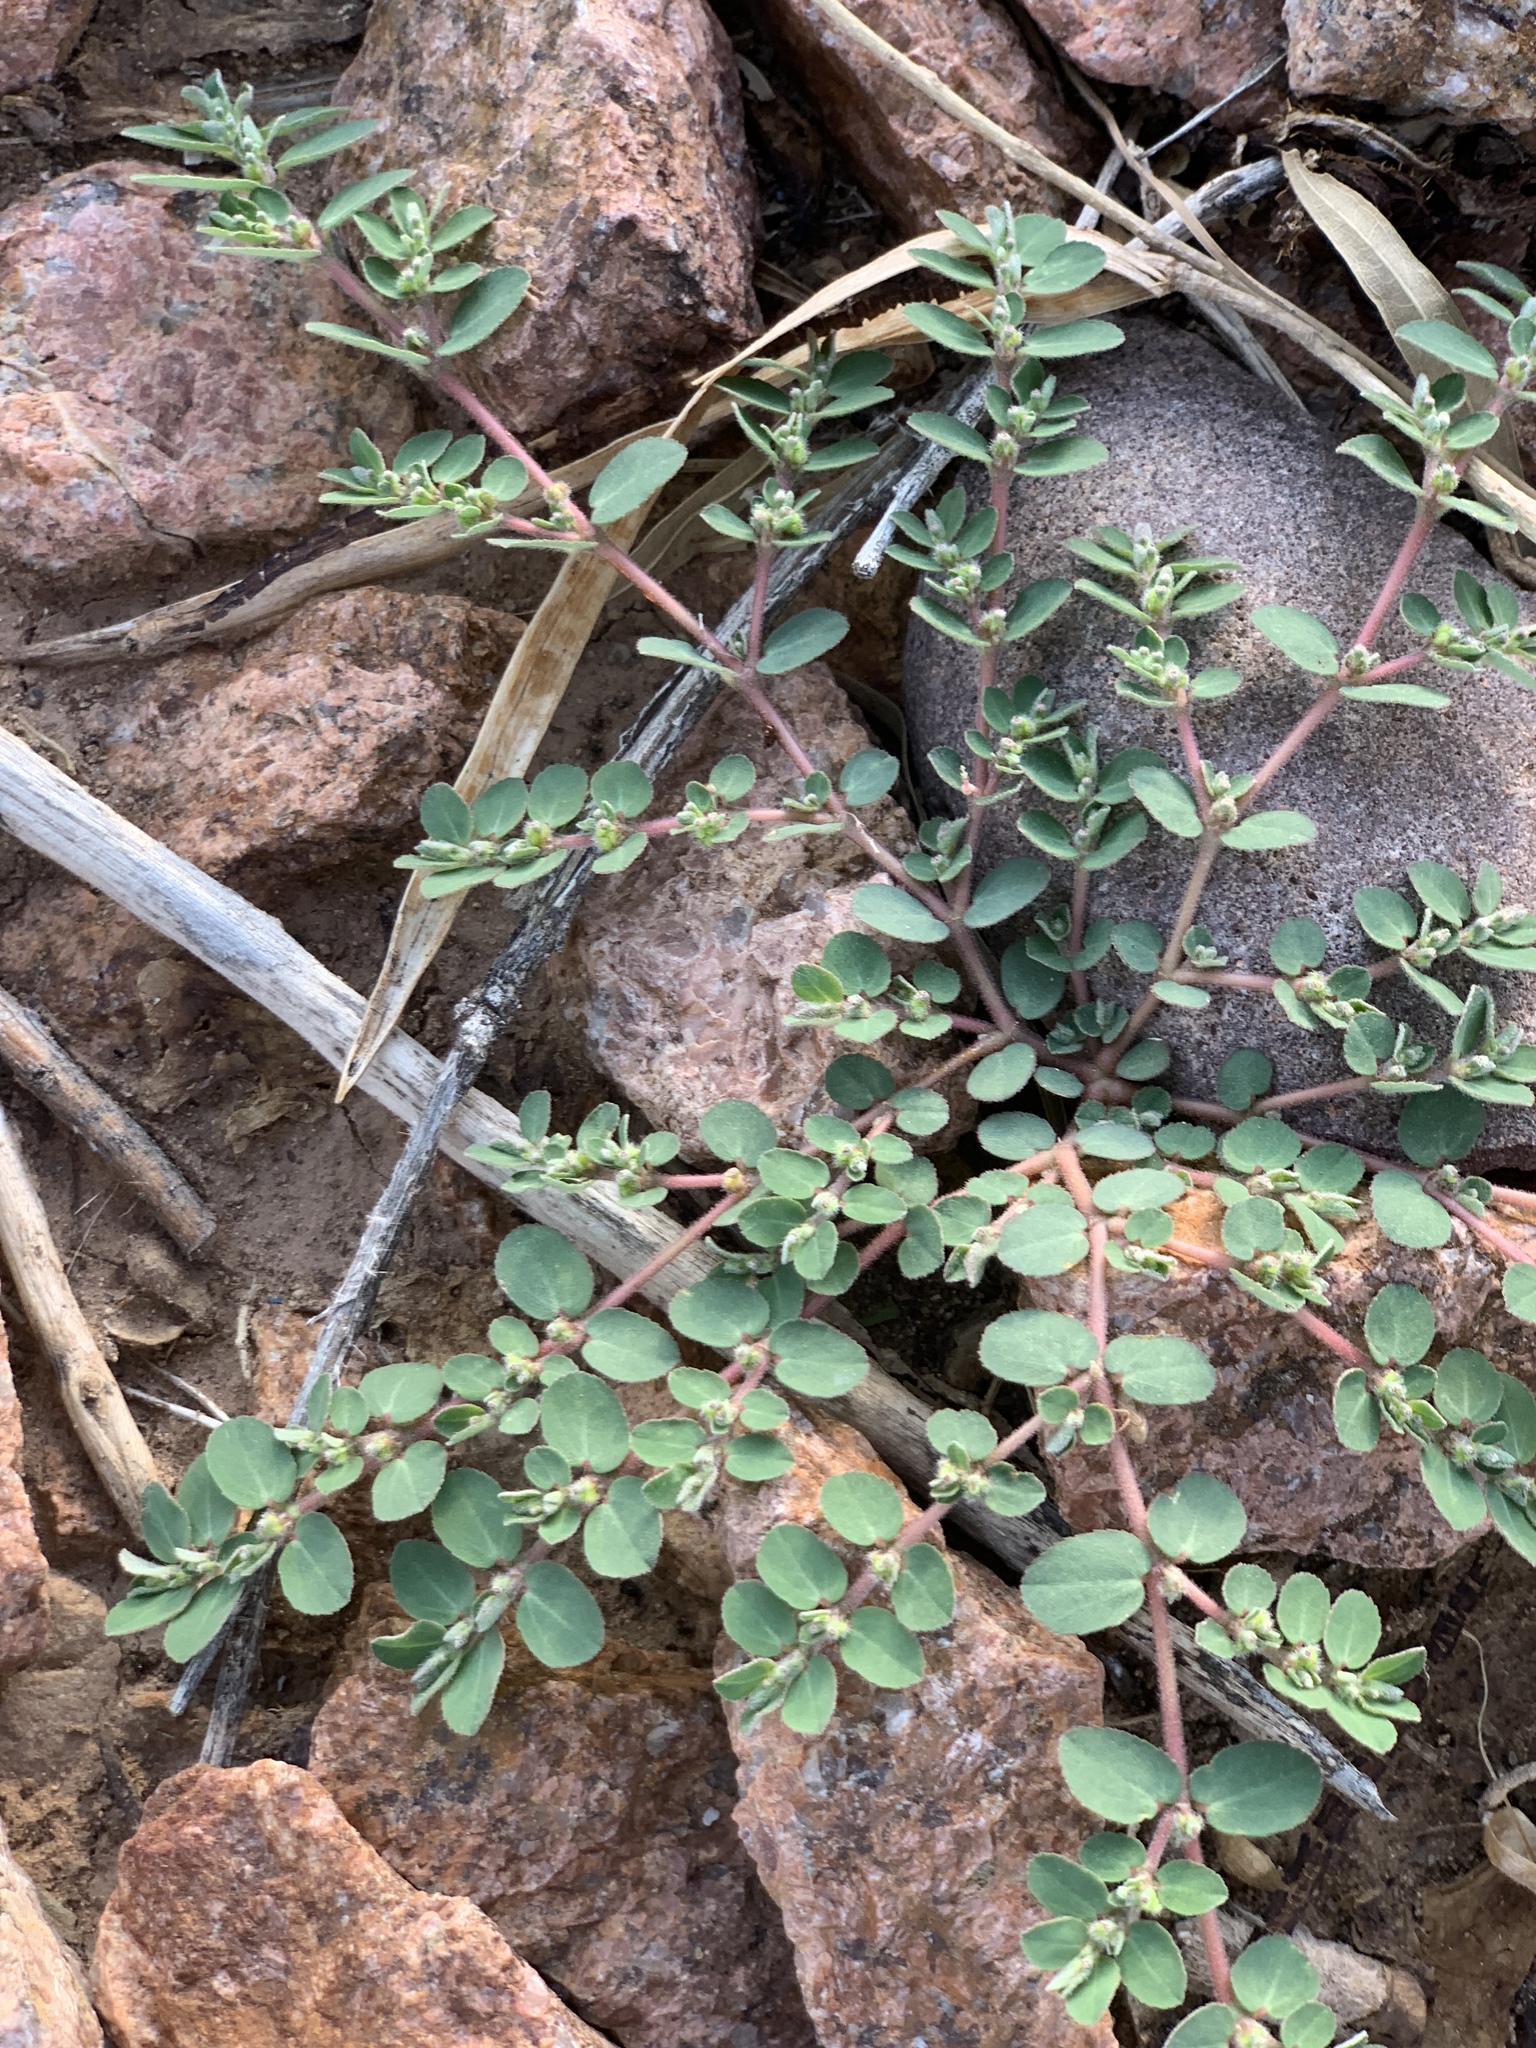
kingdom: Plantae
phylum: Tracheophyta
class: Magnoliopsida
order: Malpighiales
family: Euphorbiaceae
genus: Euphorbia
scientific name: Euphorbia prostrata
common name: Prostrate sandmat
